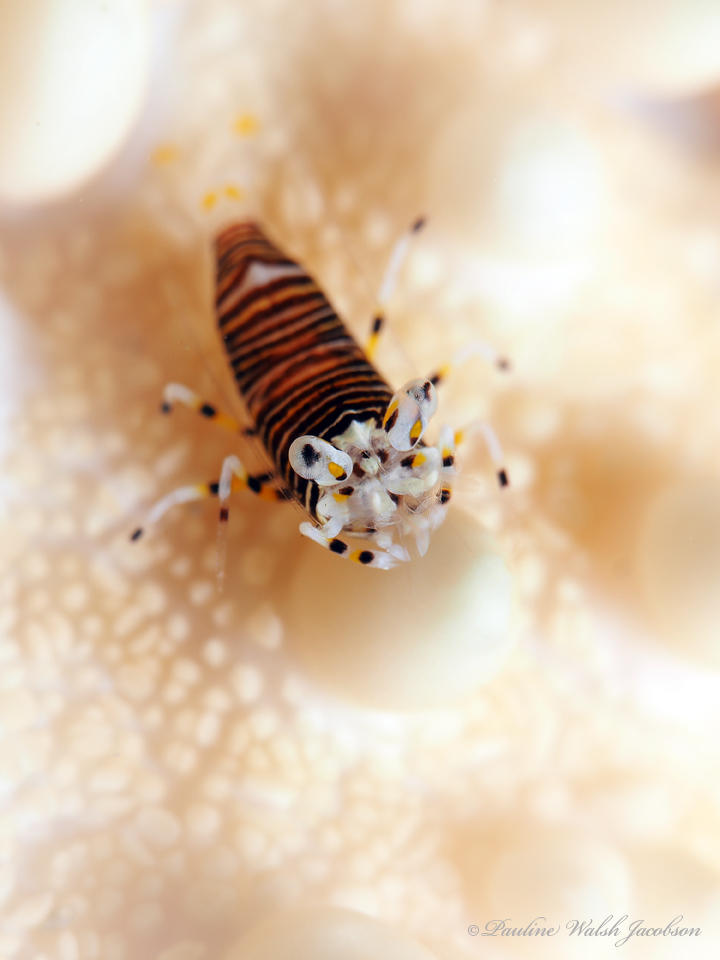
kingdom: Animalia
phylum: Arthropoda
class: Malacostraca
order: Decapoda
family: Palaemonidae
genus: Gnathophyllum
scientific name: Gnathophyllum americanum
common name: Bumblebee shrimp
